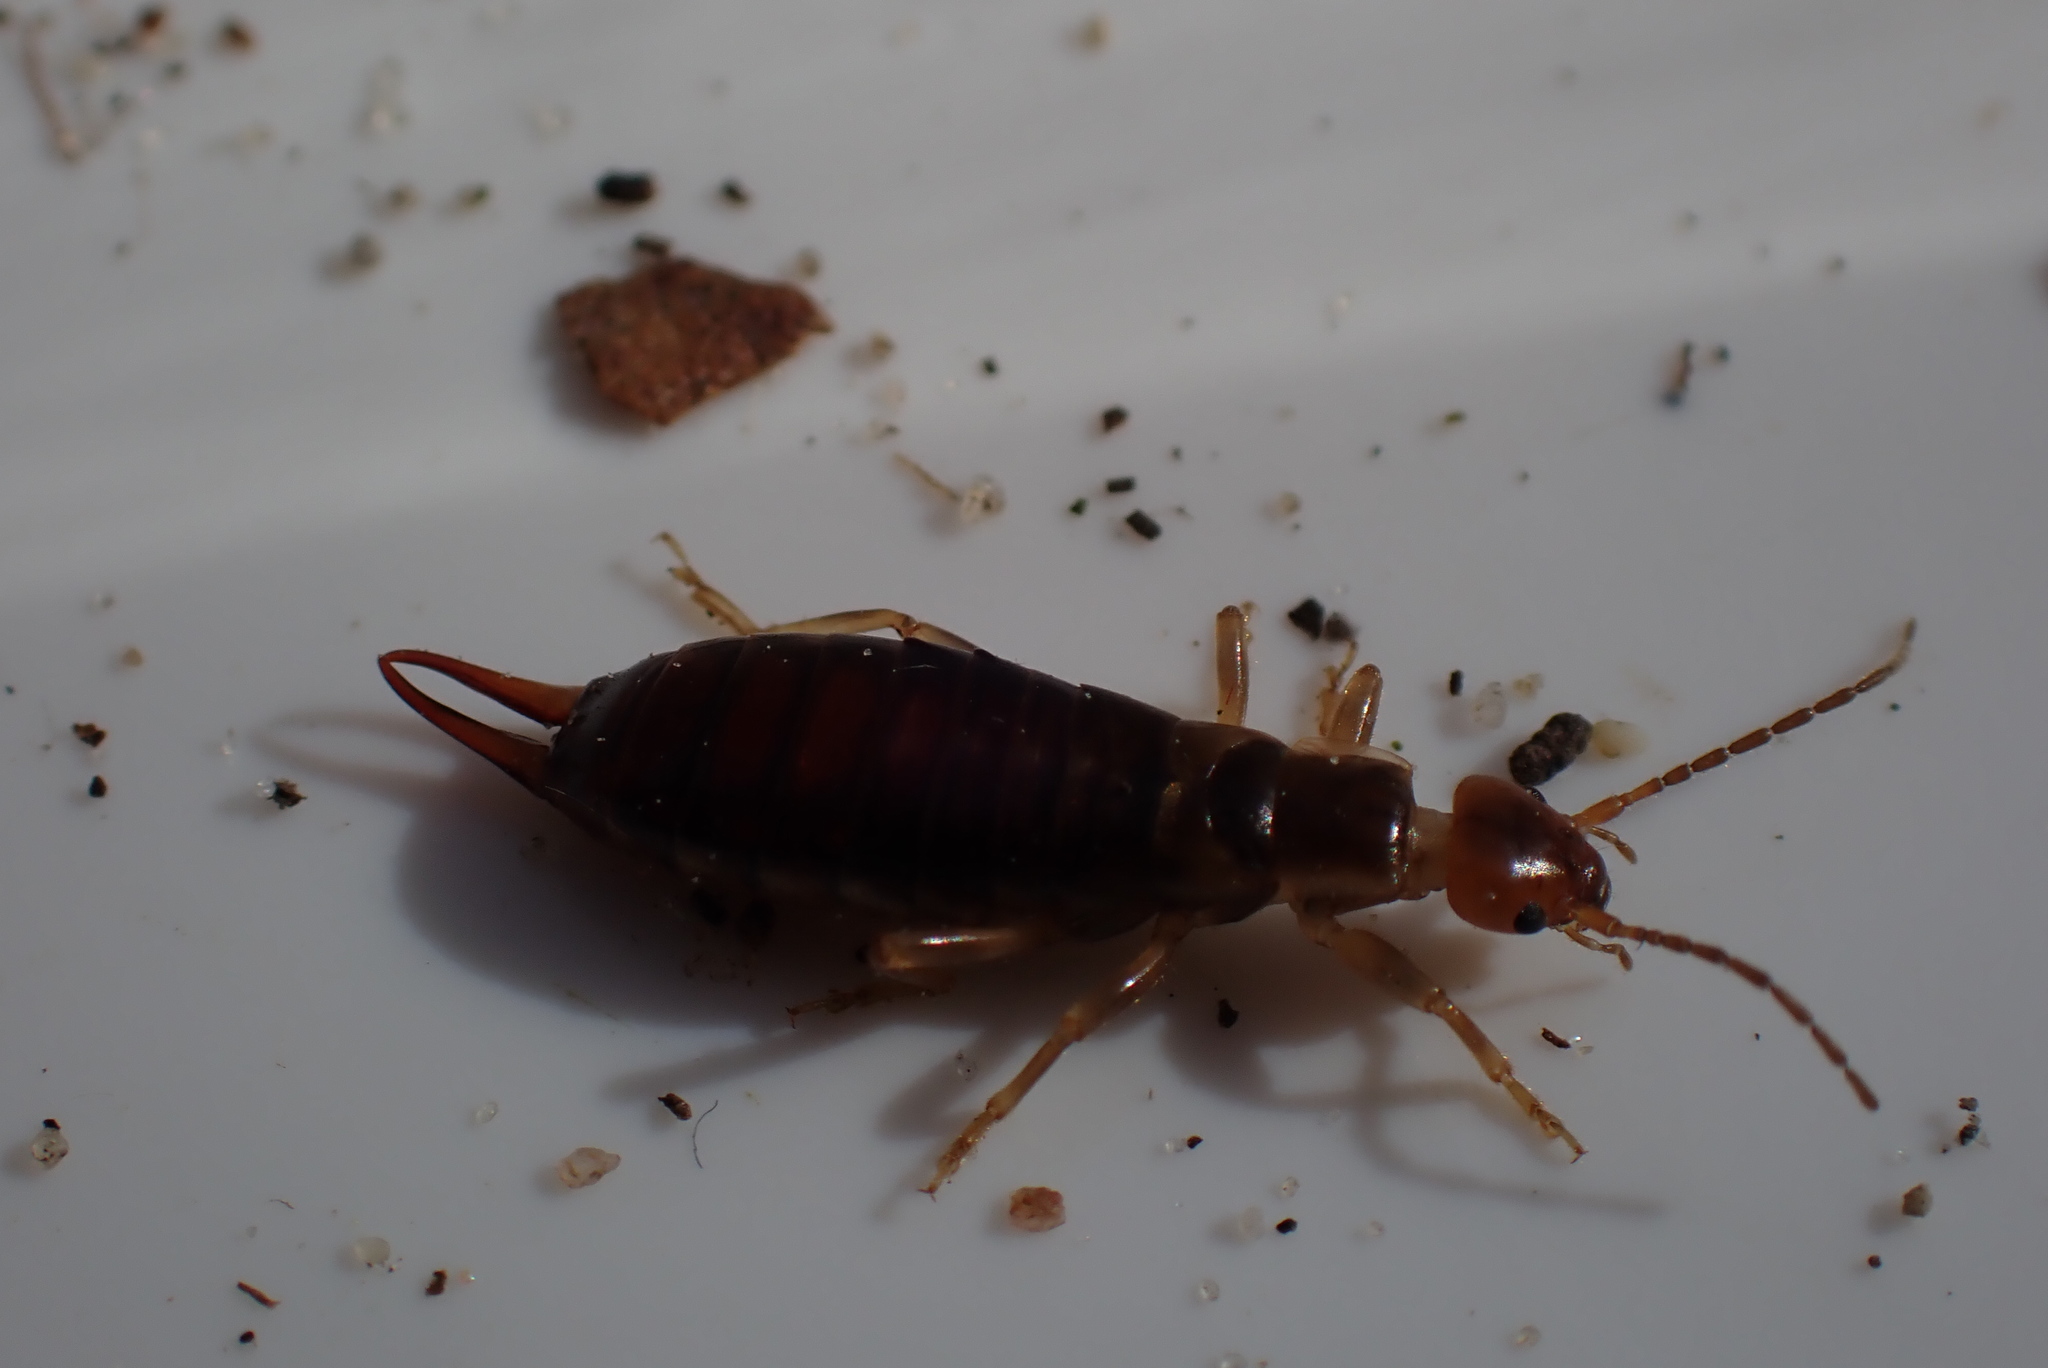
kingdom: Animalia
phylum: Arthropoda
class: Insecta
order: Dermaptera
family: Forficulidae
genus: Chelidurella
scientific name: Chelidurella acanthopygia
